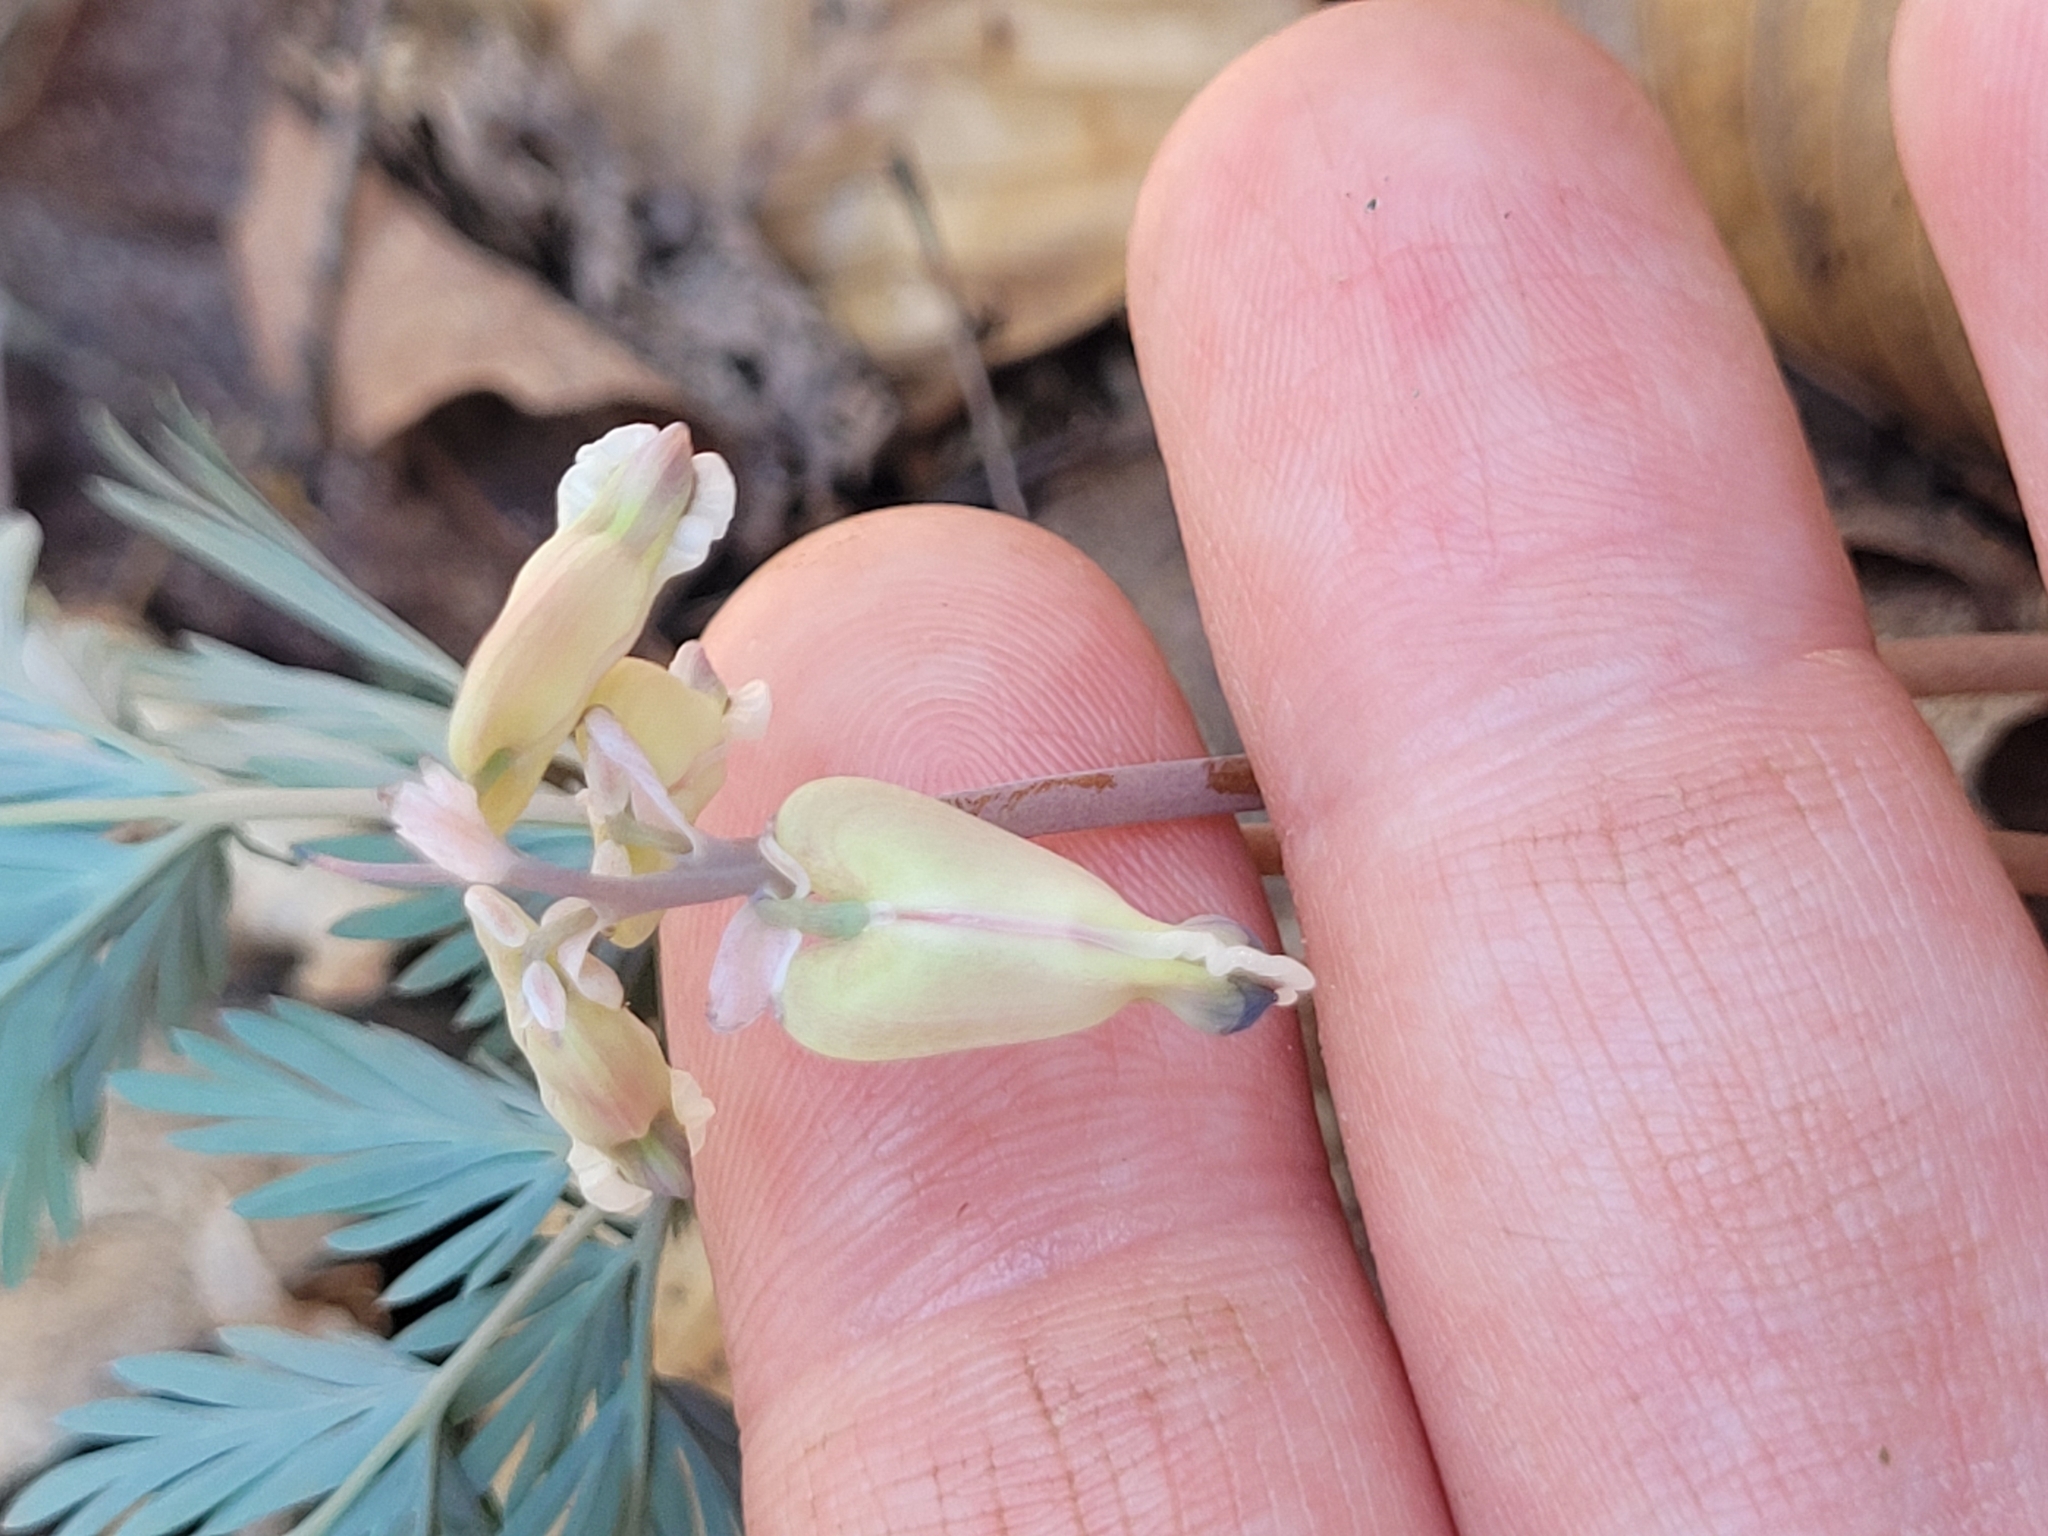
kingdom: Plantae
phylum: Tracheophyta
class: Magnoliopsida
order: Ranunculales
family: Papaveraceae
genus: Dicentra
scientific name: Dicentra canadensis
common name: Squirrel-corn
